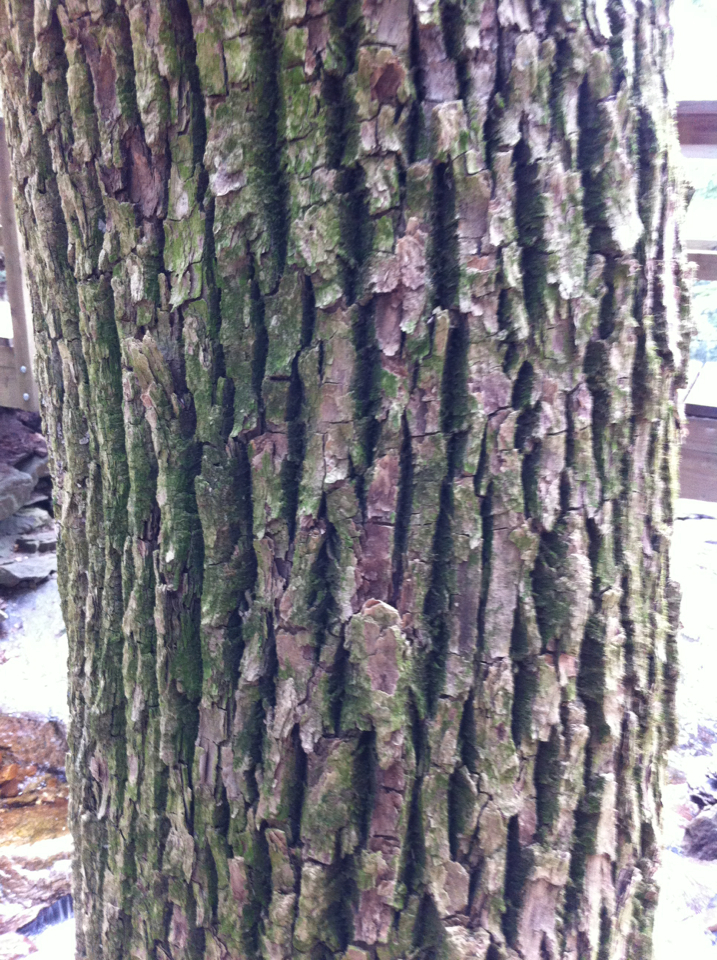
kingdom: Plantae
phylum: Tracheophyta
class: Magnoliopsida
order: Lamiales
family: Oleaceae
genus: Fraxinus
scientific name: Fraxinus americana
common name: White ash
